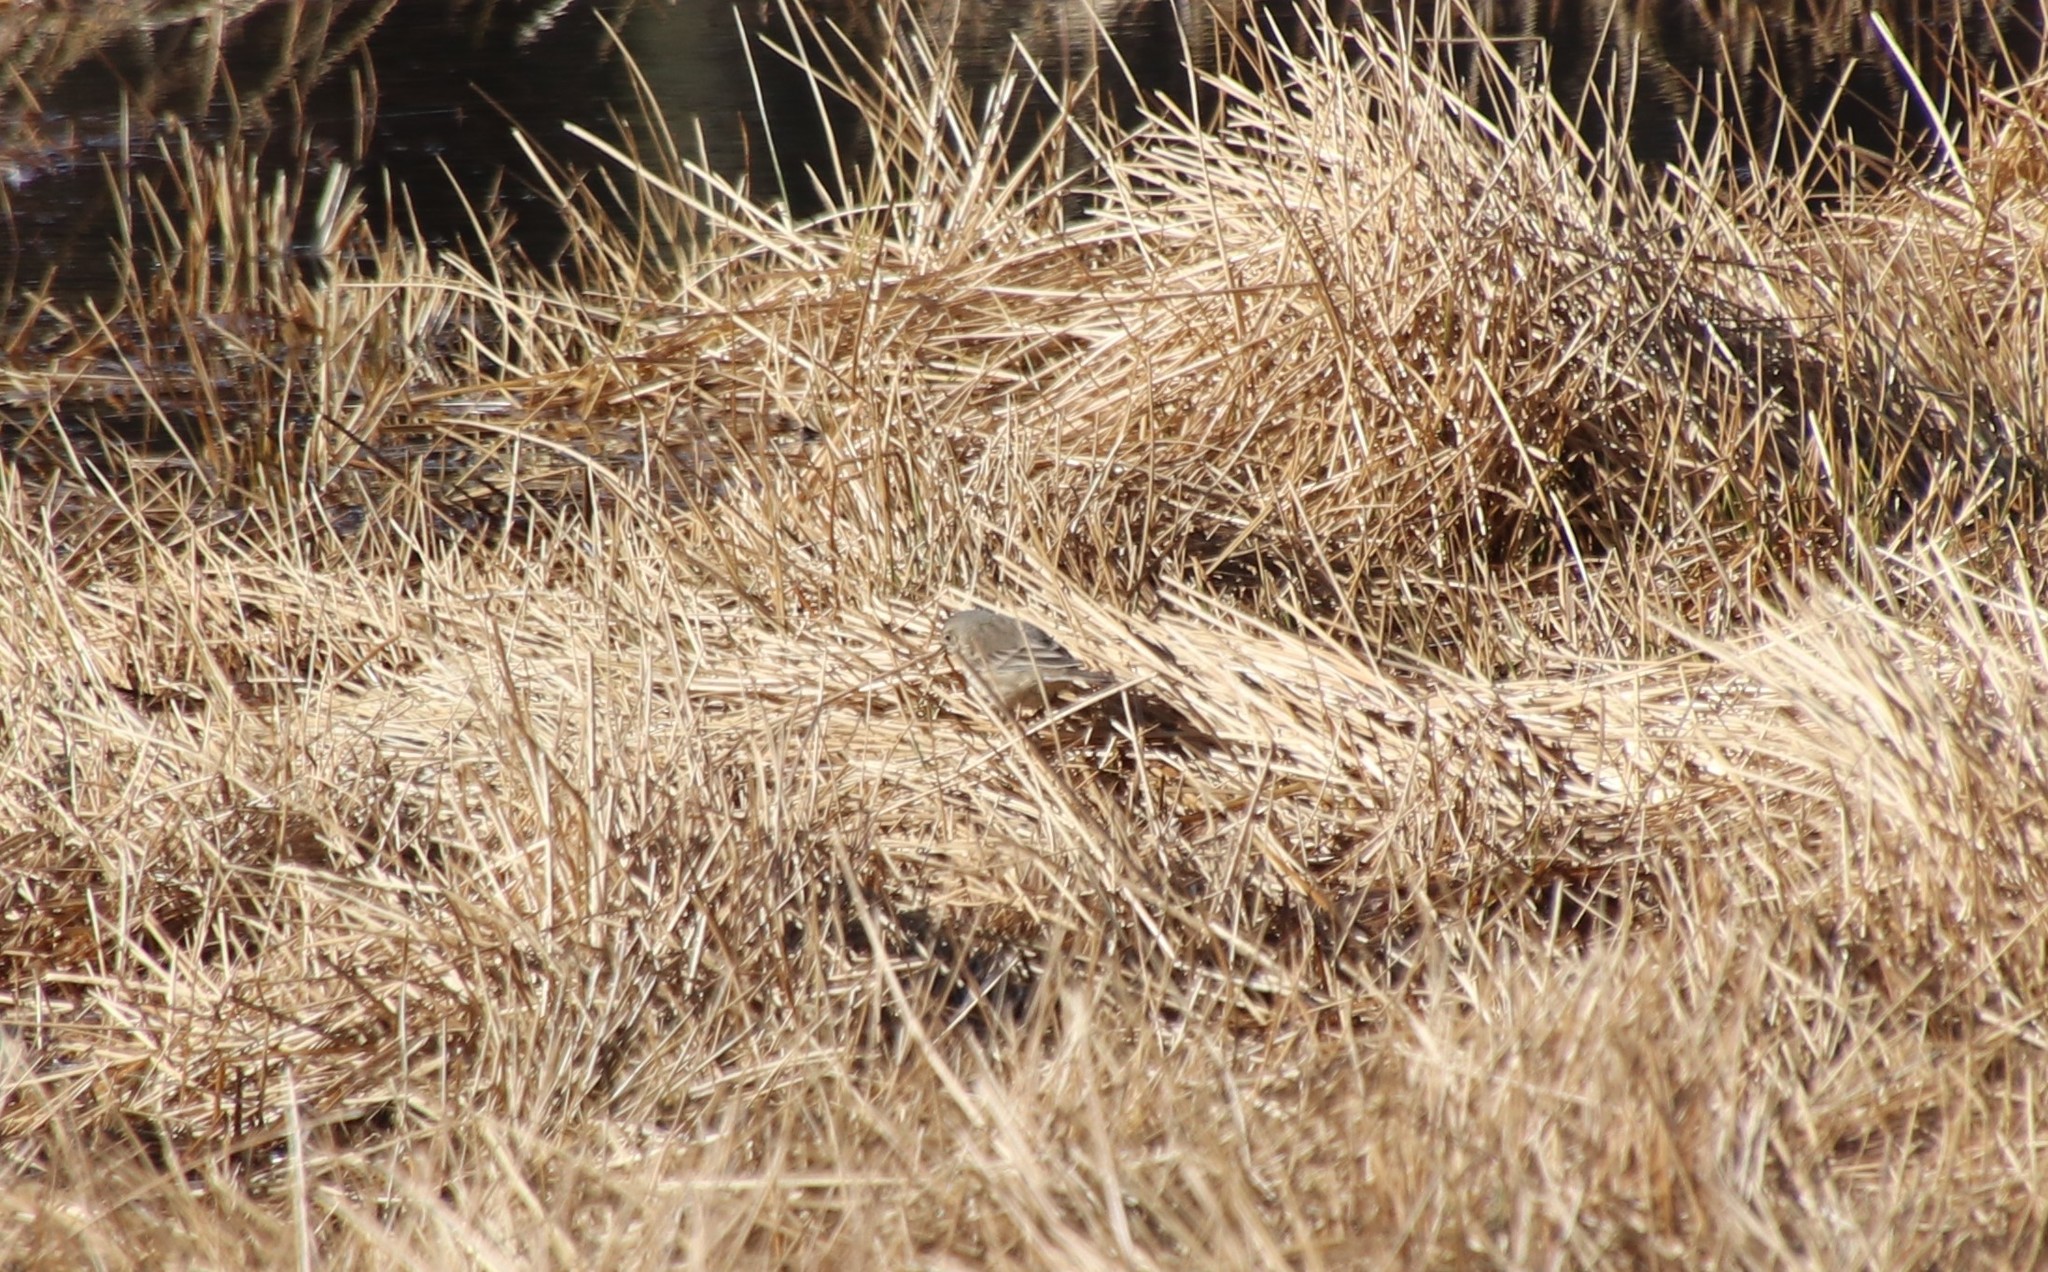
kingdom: Animalia
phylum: Chordata
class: Aves
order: Passeriformes
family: Motacillidae
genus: Anthus
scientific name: Anthus rubescens
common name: Buff-bellied pipit
